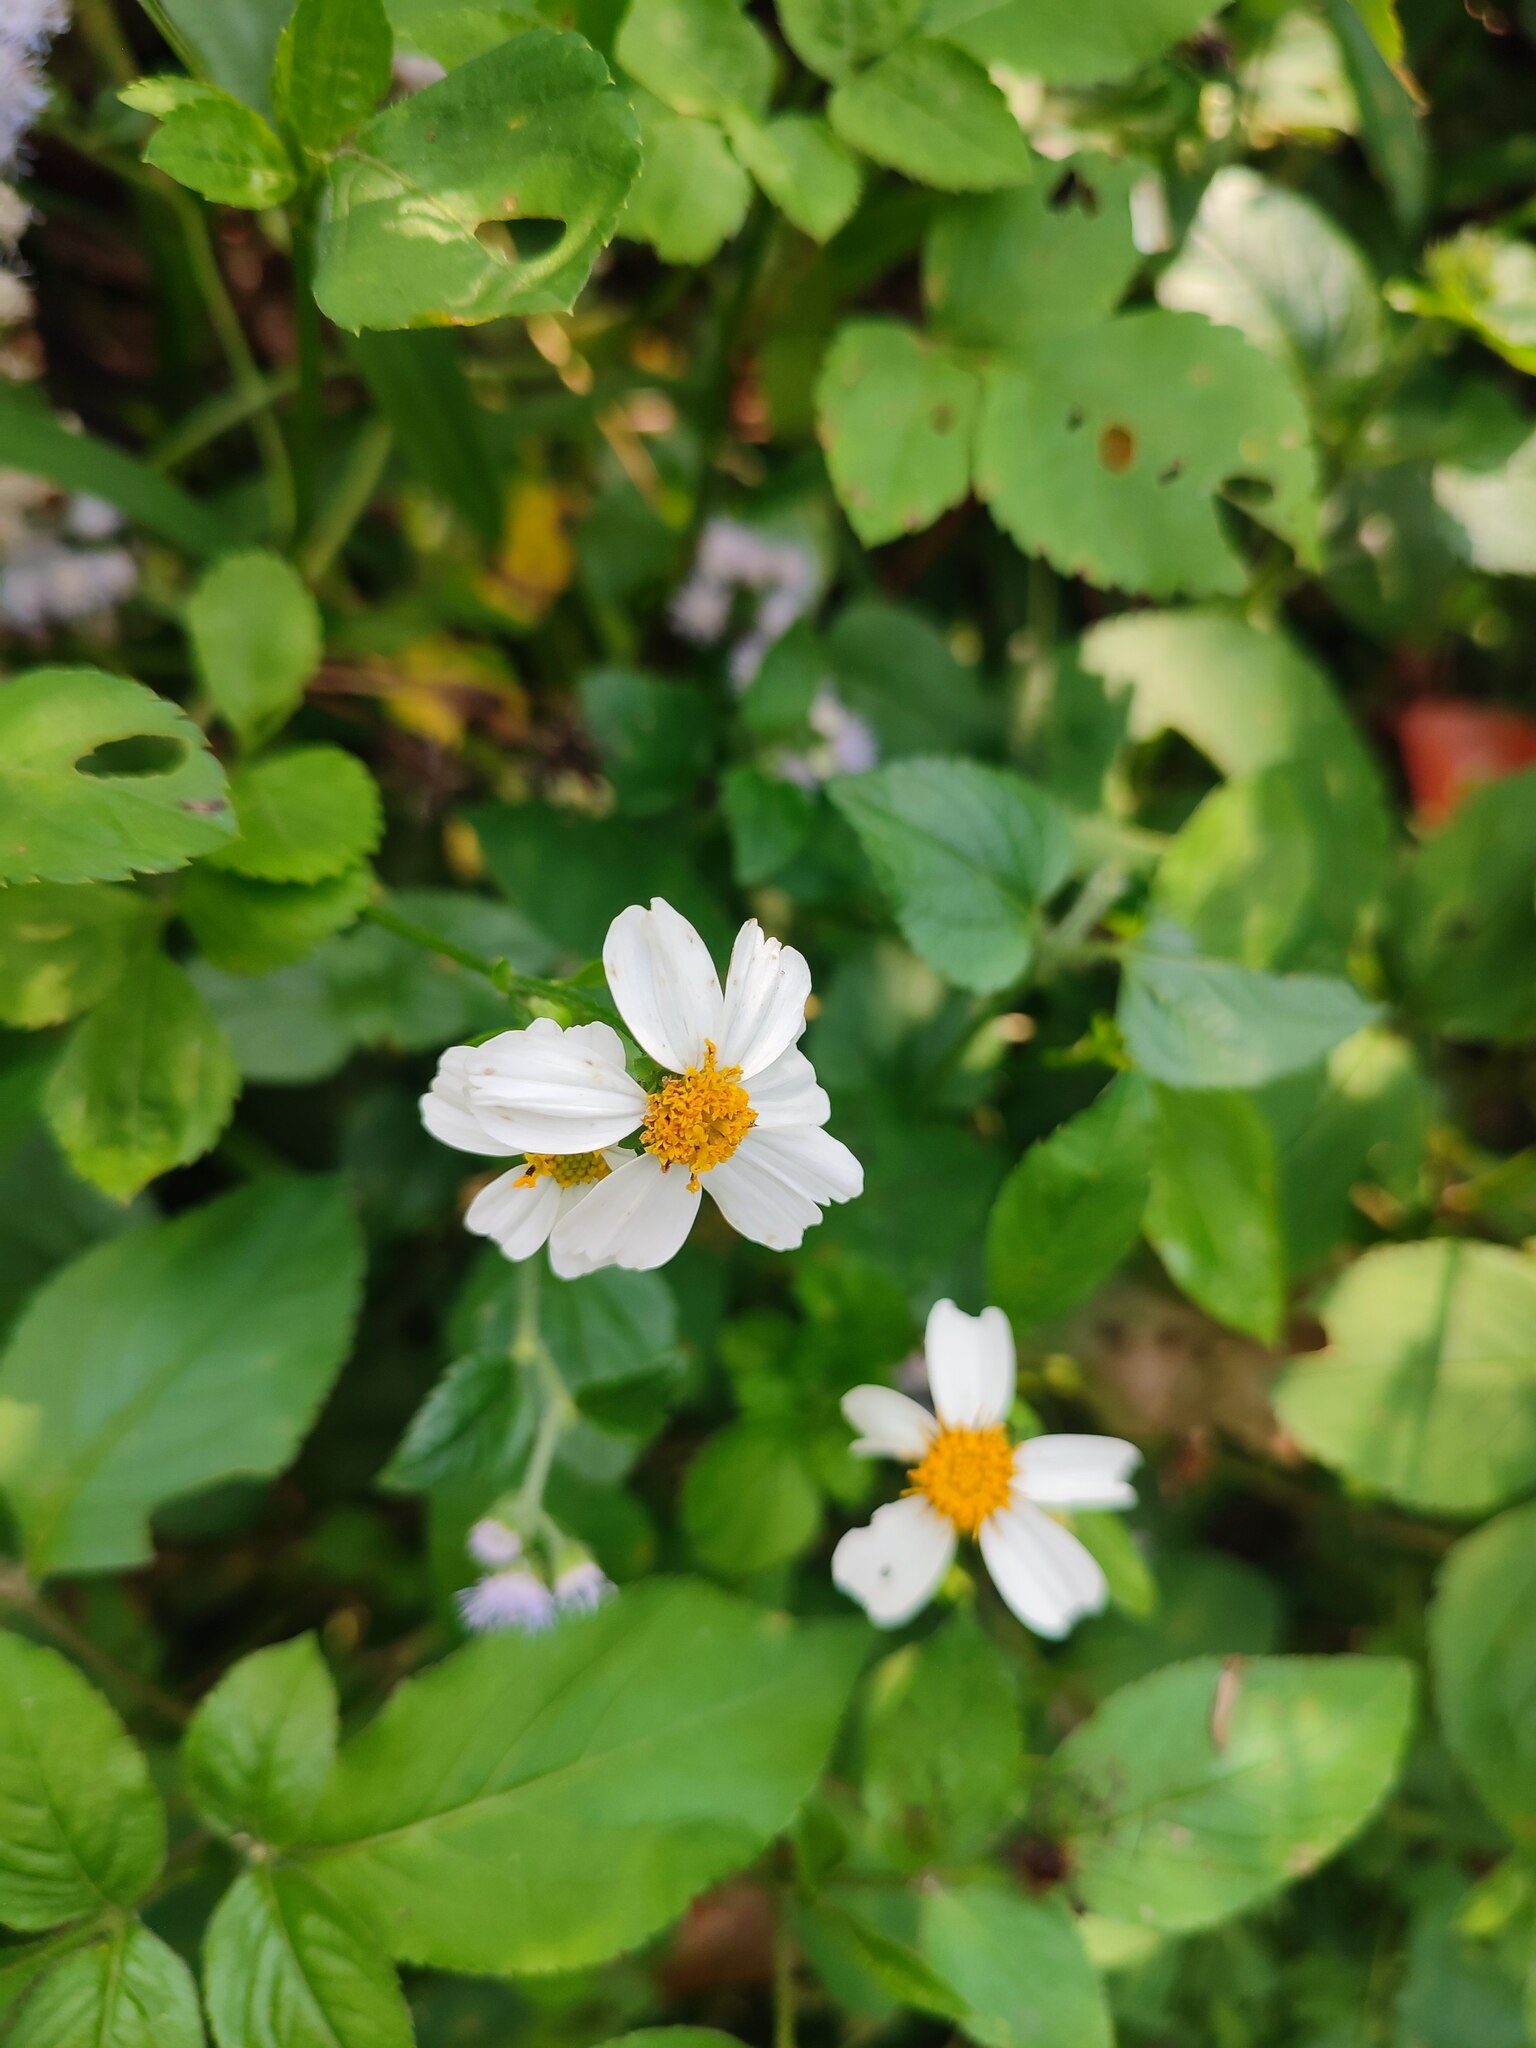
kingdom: Plantae
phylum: Tracheophyta
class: Magnoliopsida
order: Asterales
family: Asteraceae
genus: Bidens
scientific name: Bidens alba
